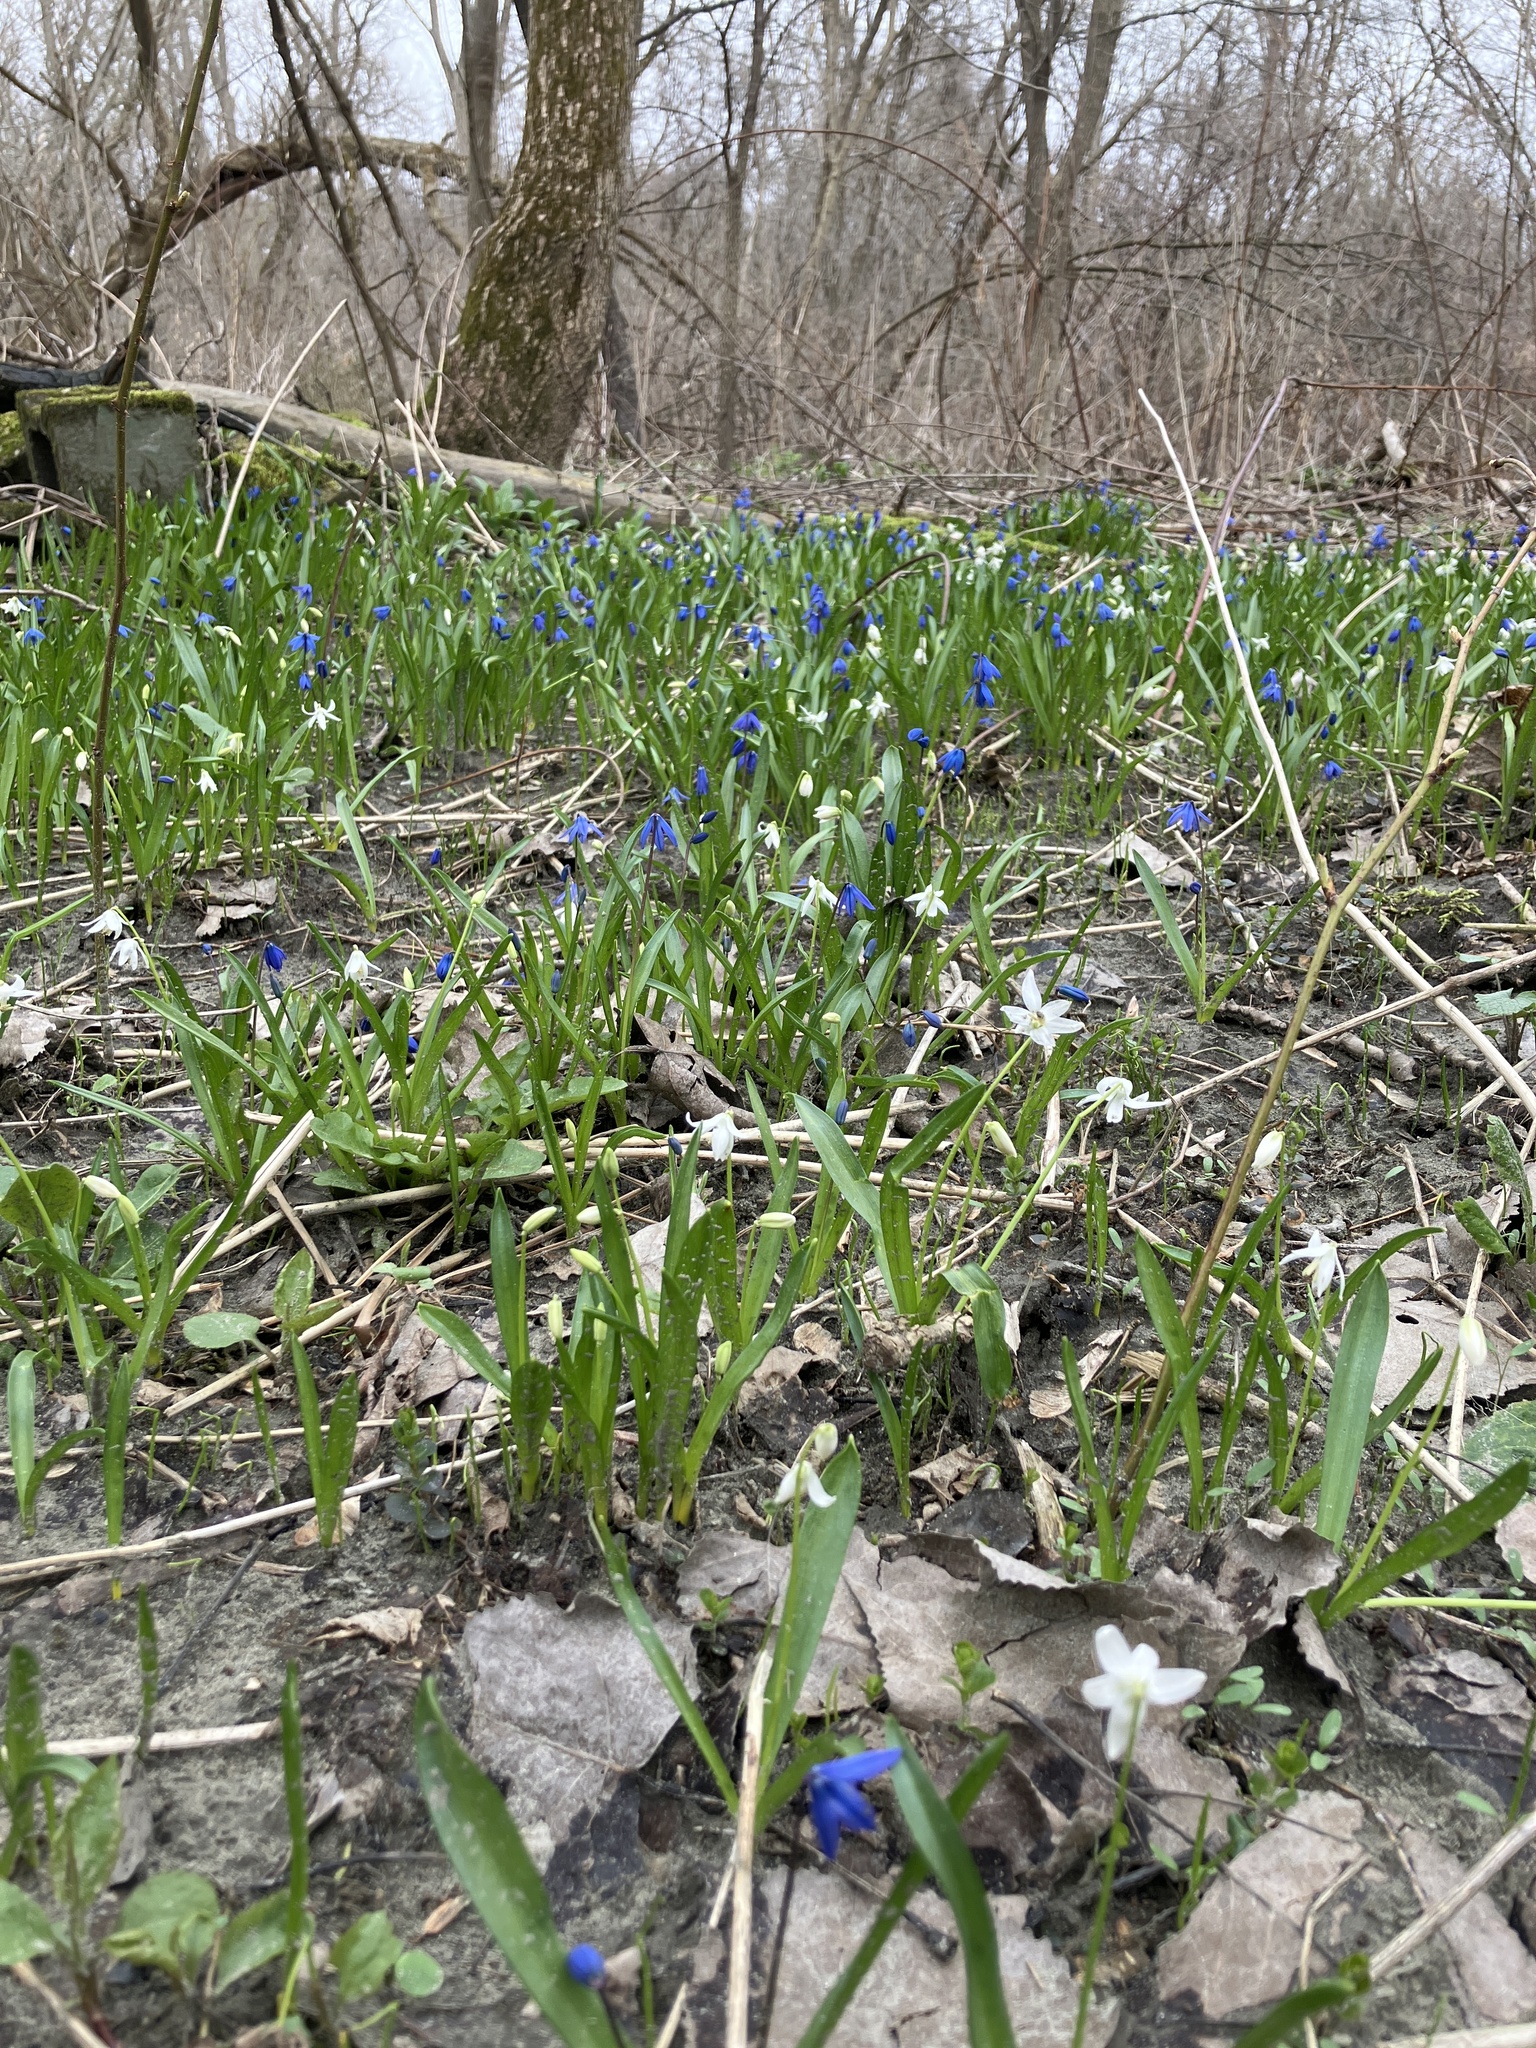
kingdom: Plantae
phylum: Tracheophyta
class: Liliopsida
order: Asparagales
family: Asparagaceae
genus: Scilla
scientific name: Scilla siberica
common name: Siberian squill
